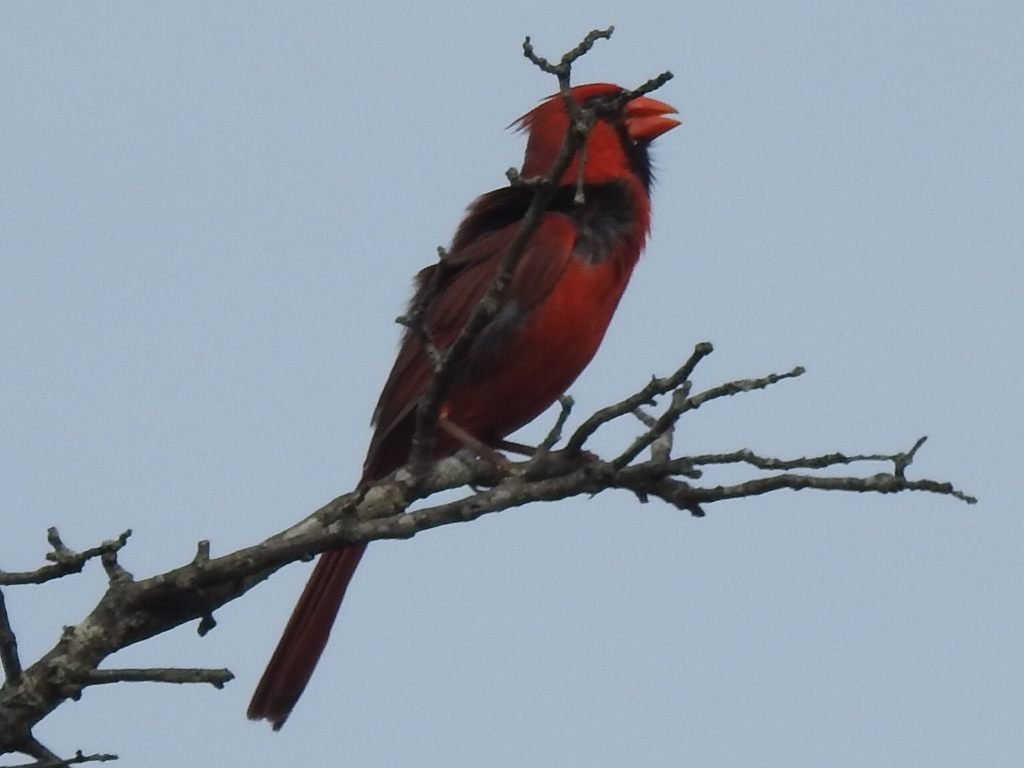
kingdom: Animalia
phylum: Chordata
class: Aves
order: Passeriformes
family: Cardinalidae
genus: Cardinalis
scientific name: Cardinalis cardinalis
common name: Northern cardinal
